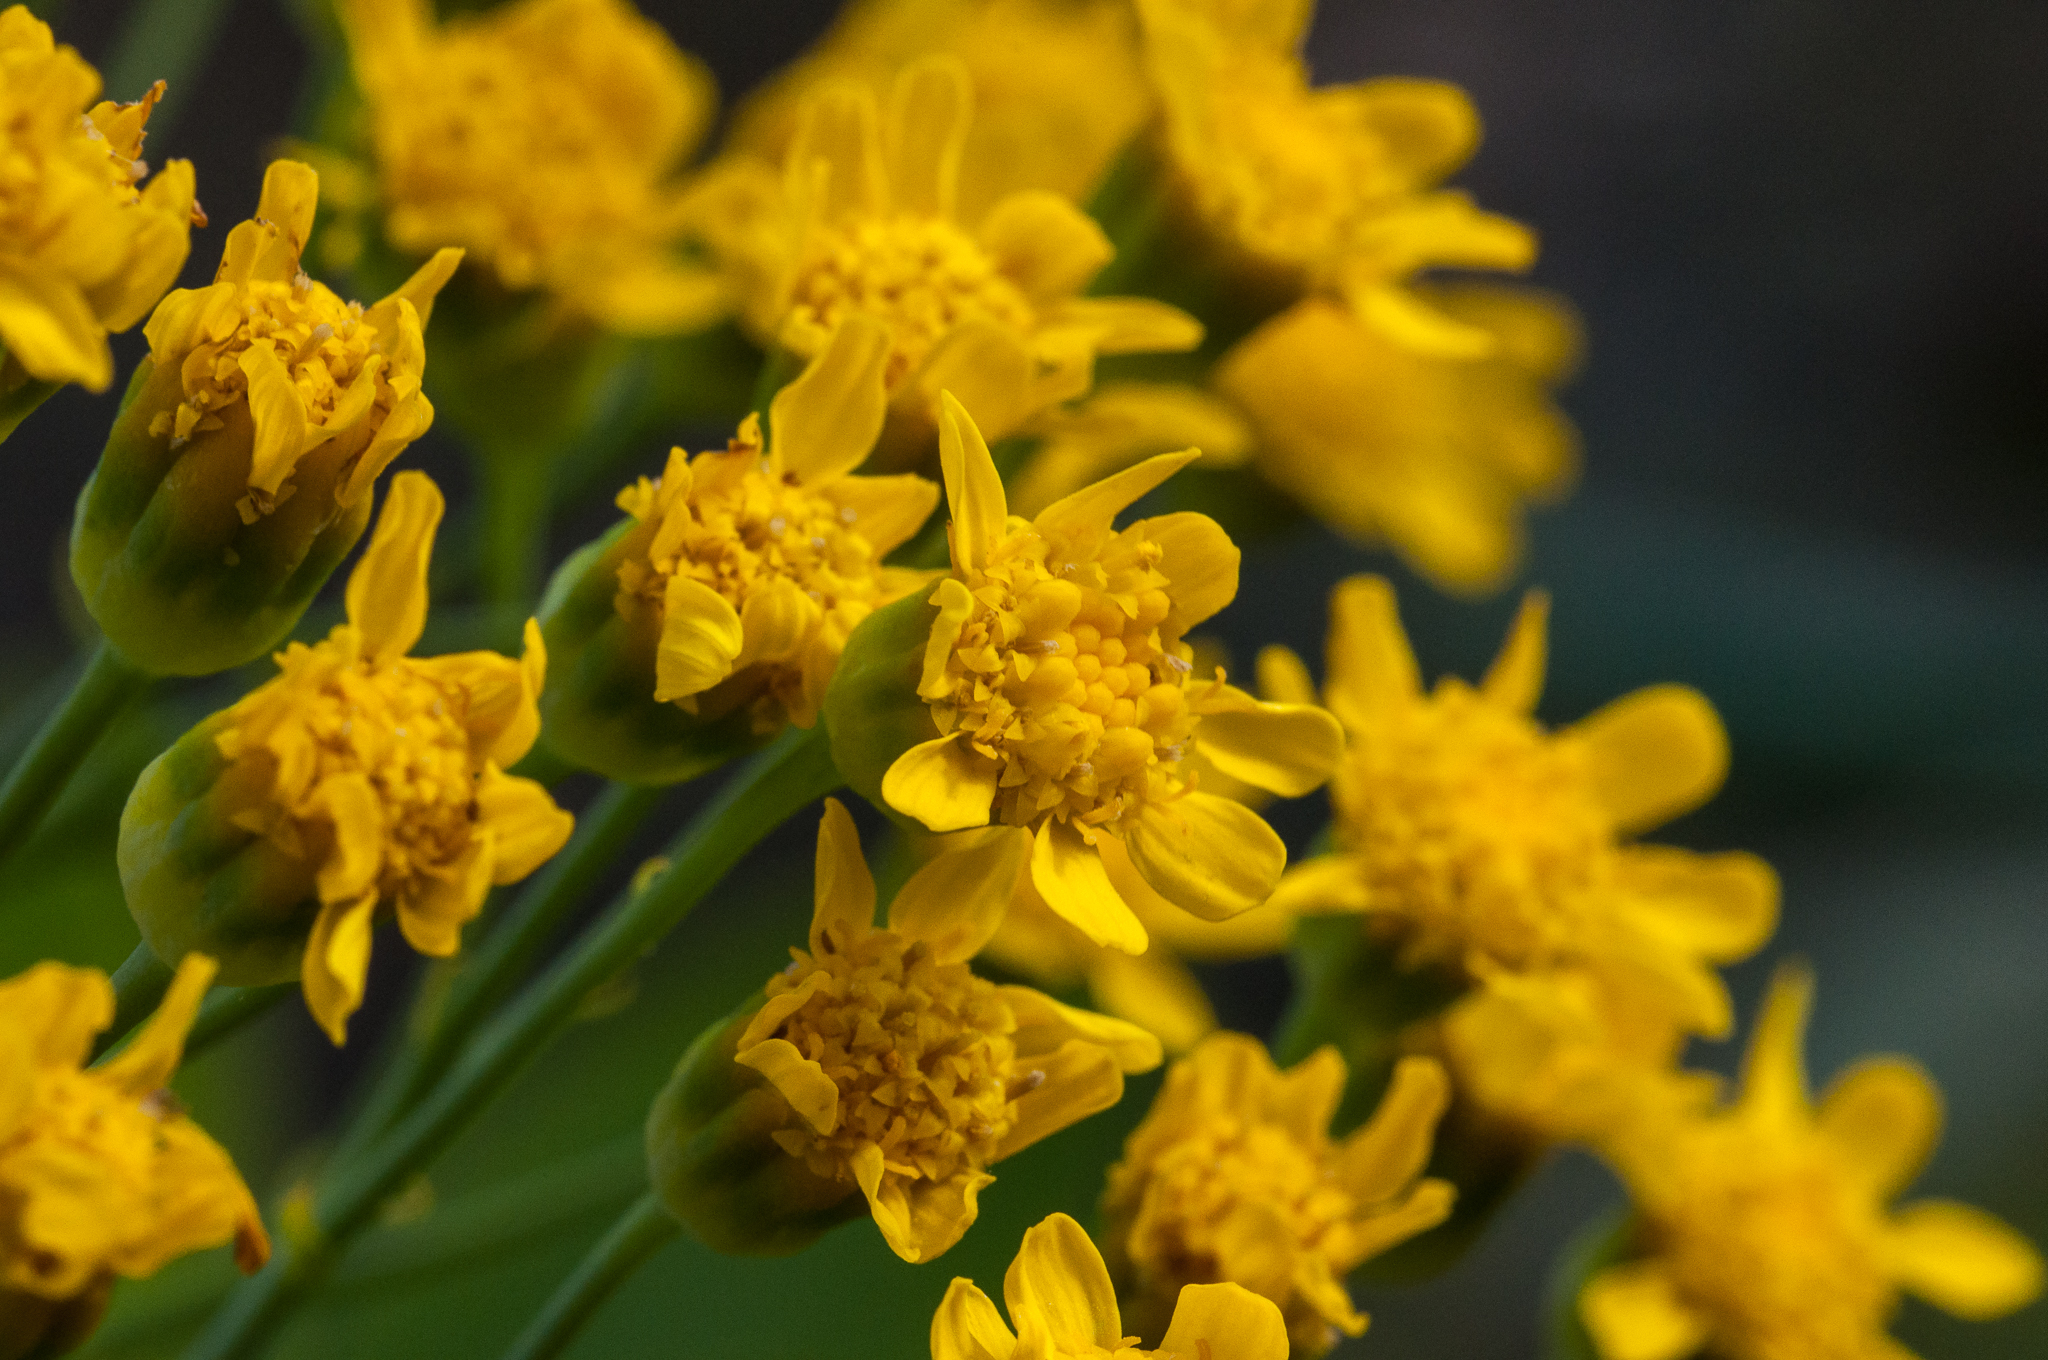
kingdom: Plantae
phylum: Tracheophyta
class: Magnoliopsida
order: Asterales
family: Asteraceae
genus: Othonna
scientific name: Othonna parviflora
